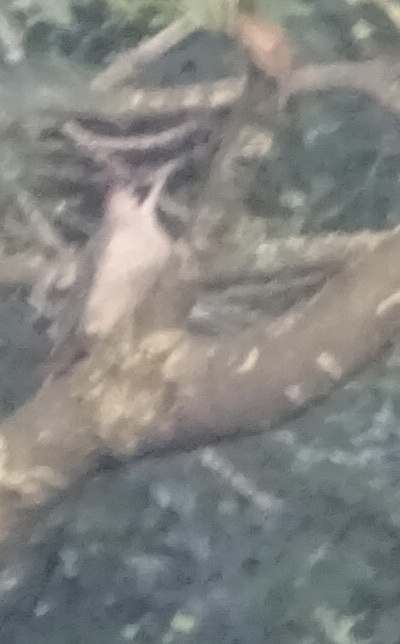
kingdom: Animalia
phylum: Chordata
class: Aves
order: Piciformes
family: Picidae
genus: Picus
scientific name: Picus viridis
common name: European green woodpecker
